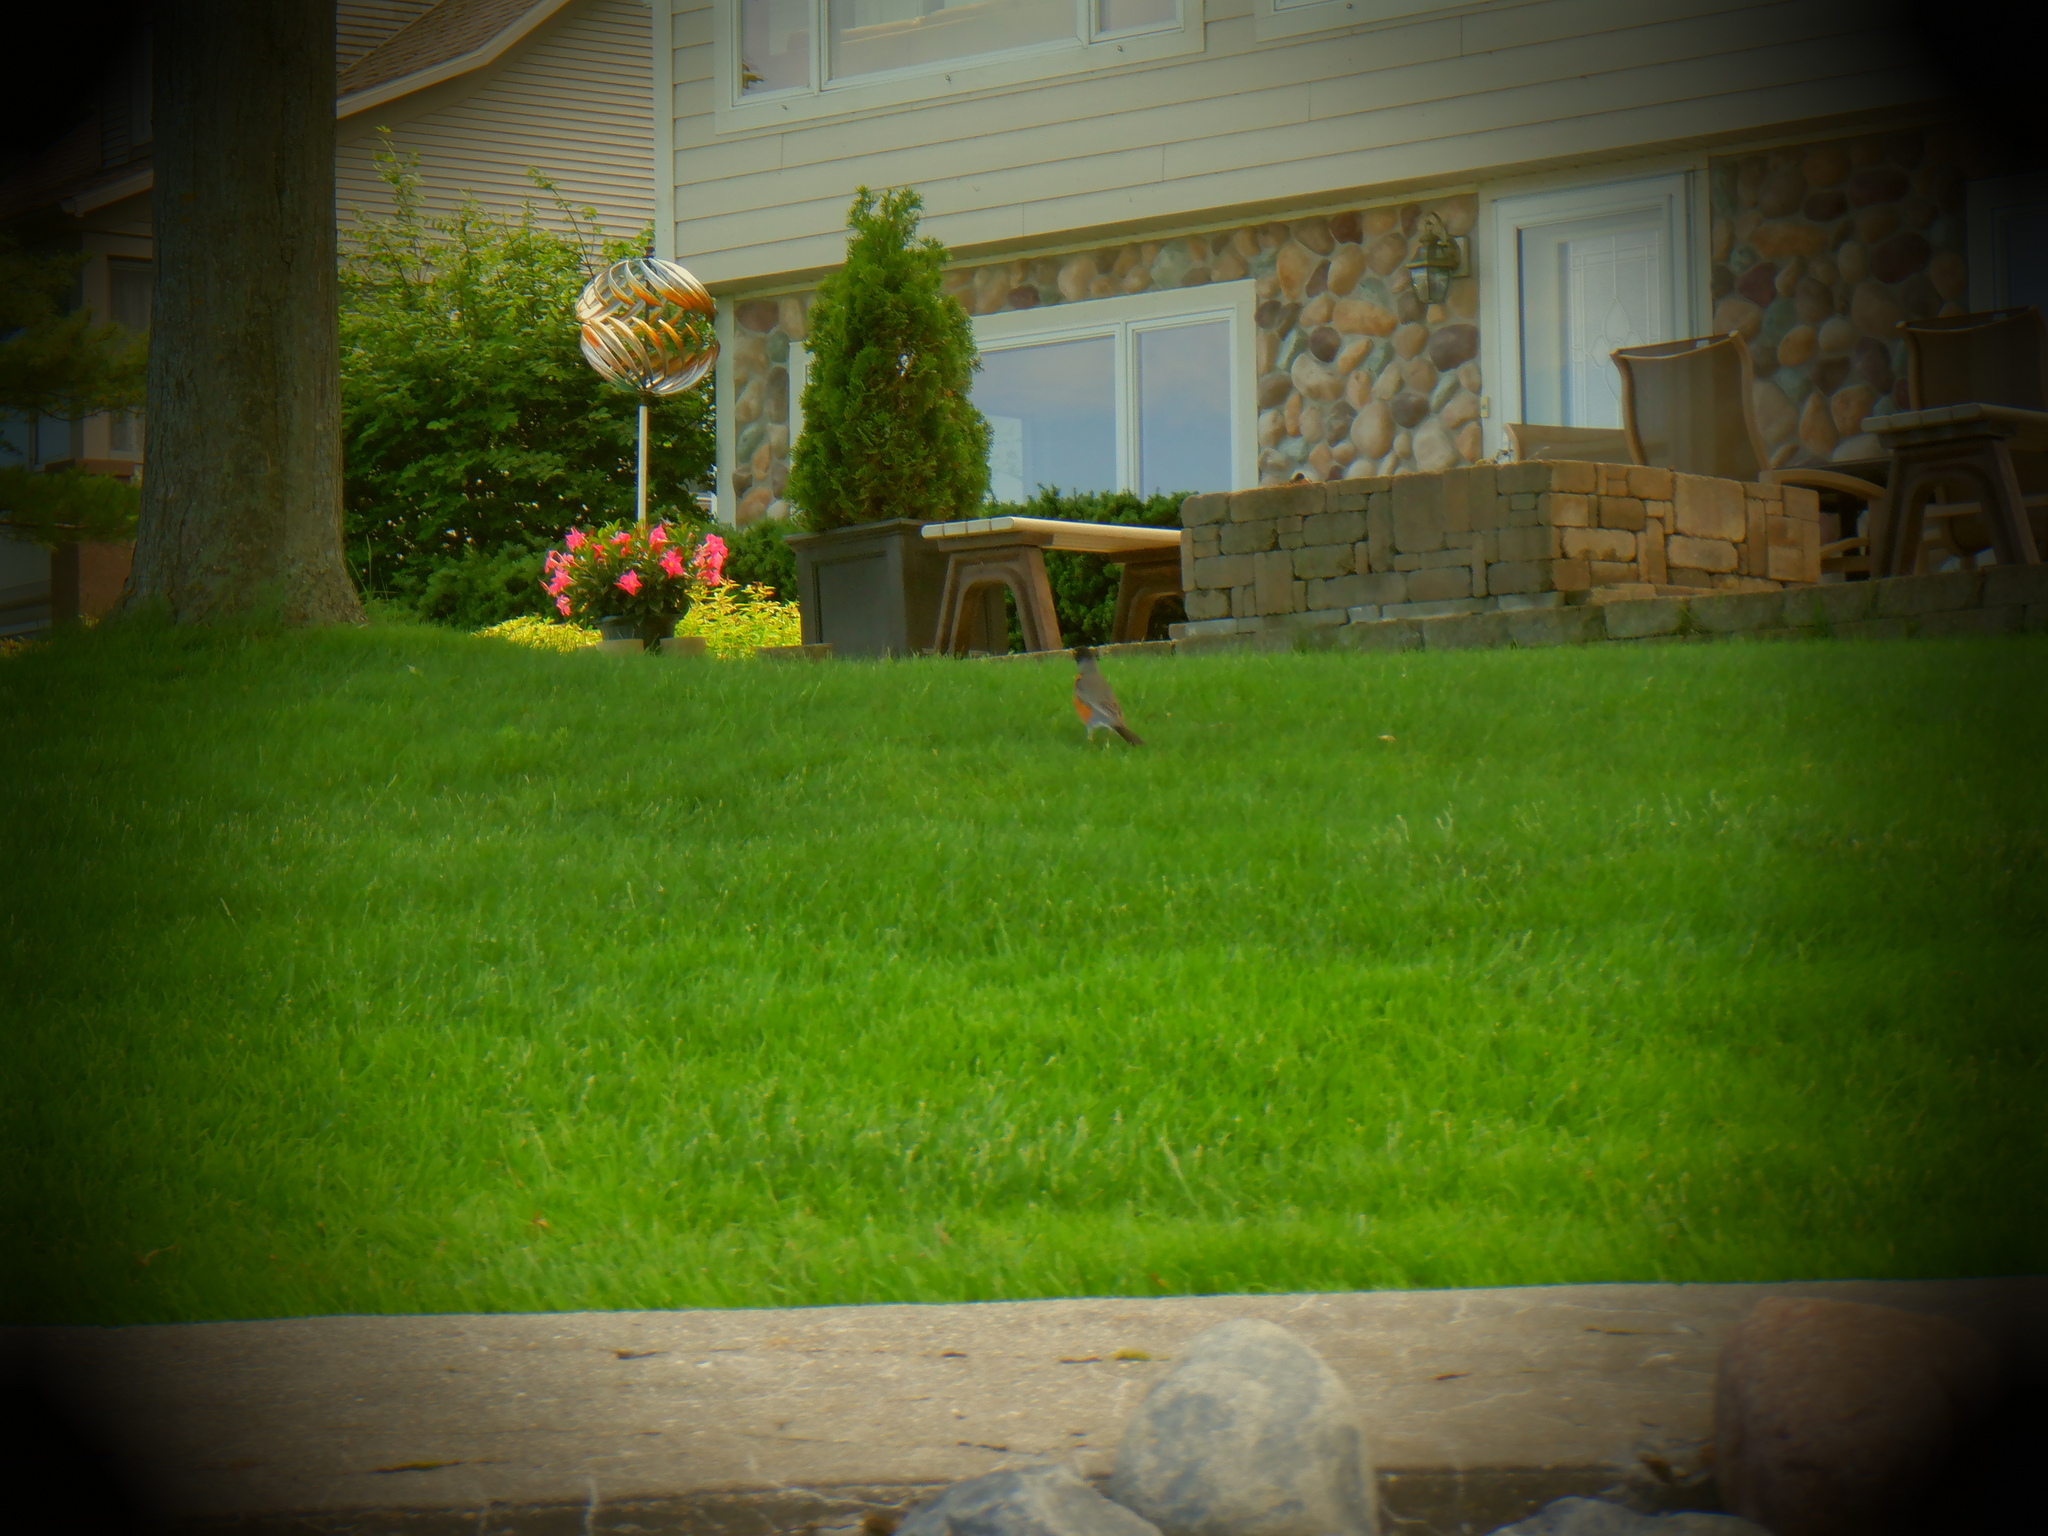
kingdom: Animalia
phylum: Chordata
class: Aves
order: Passeriformes
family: Turdidae
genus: Turdus
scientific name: Turdus migratorius
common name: American robin
